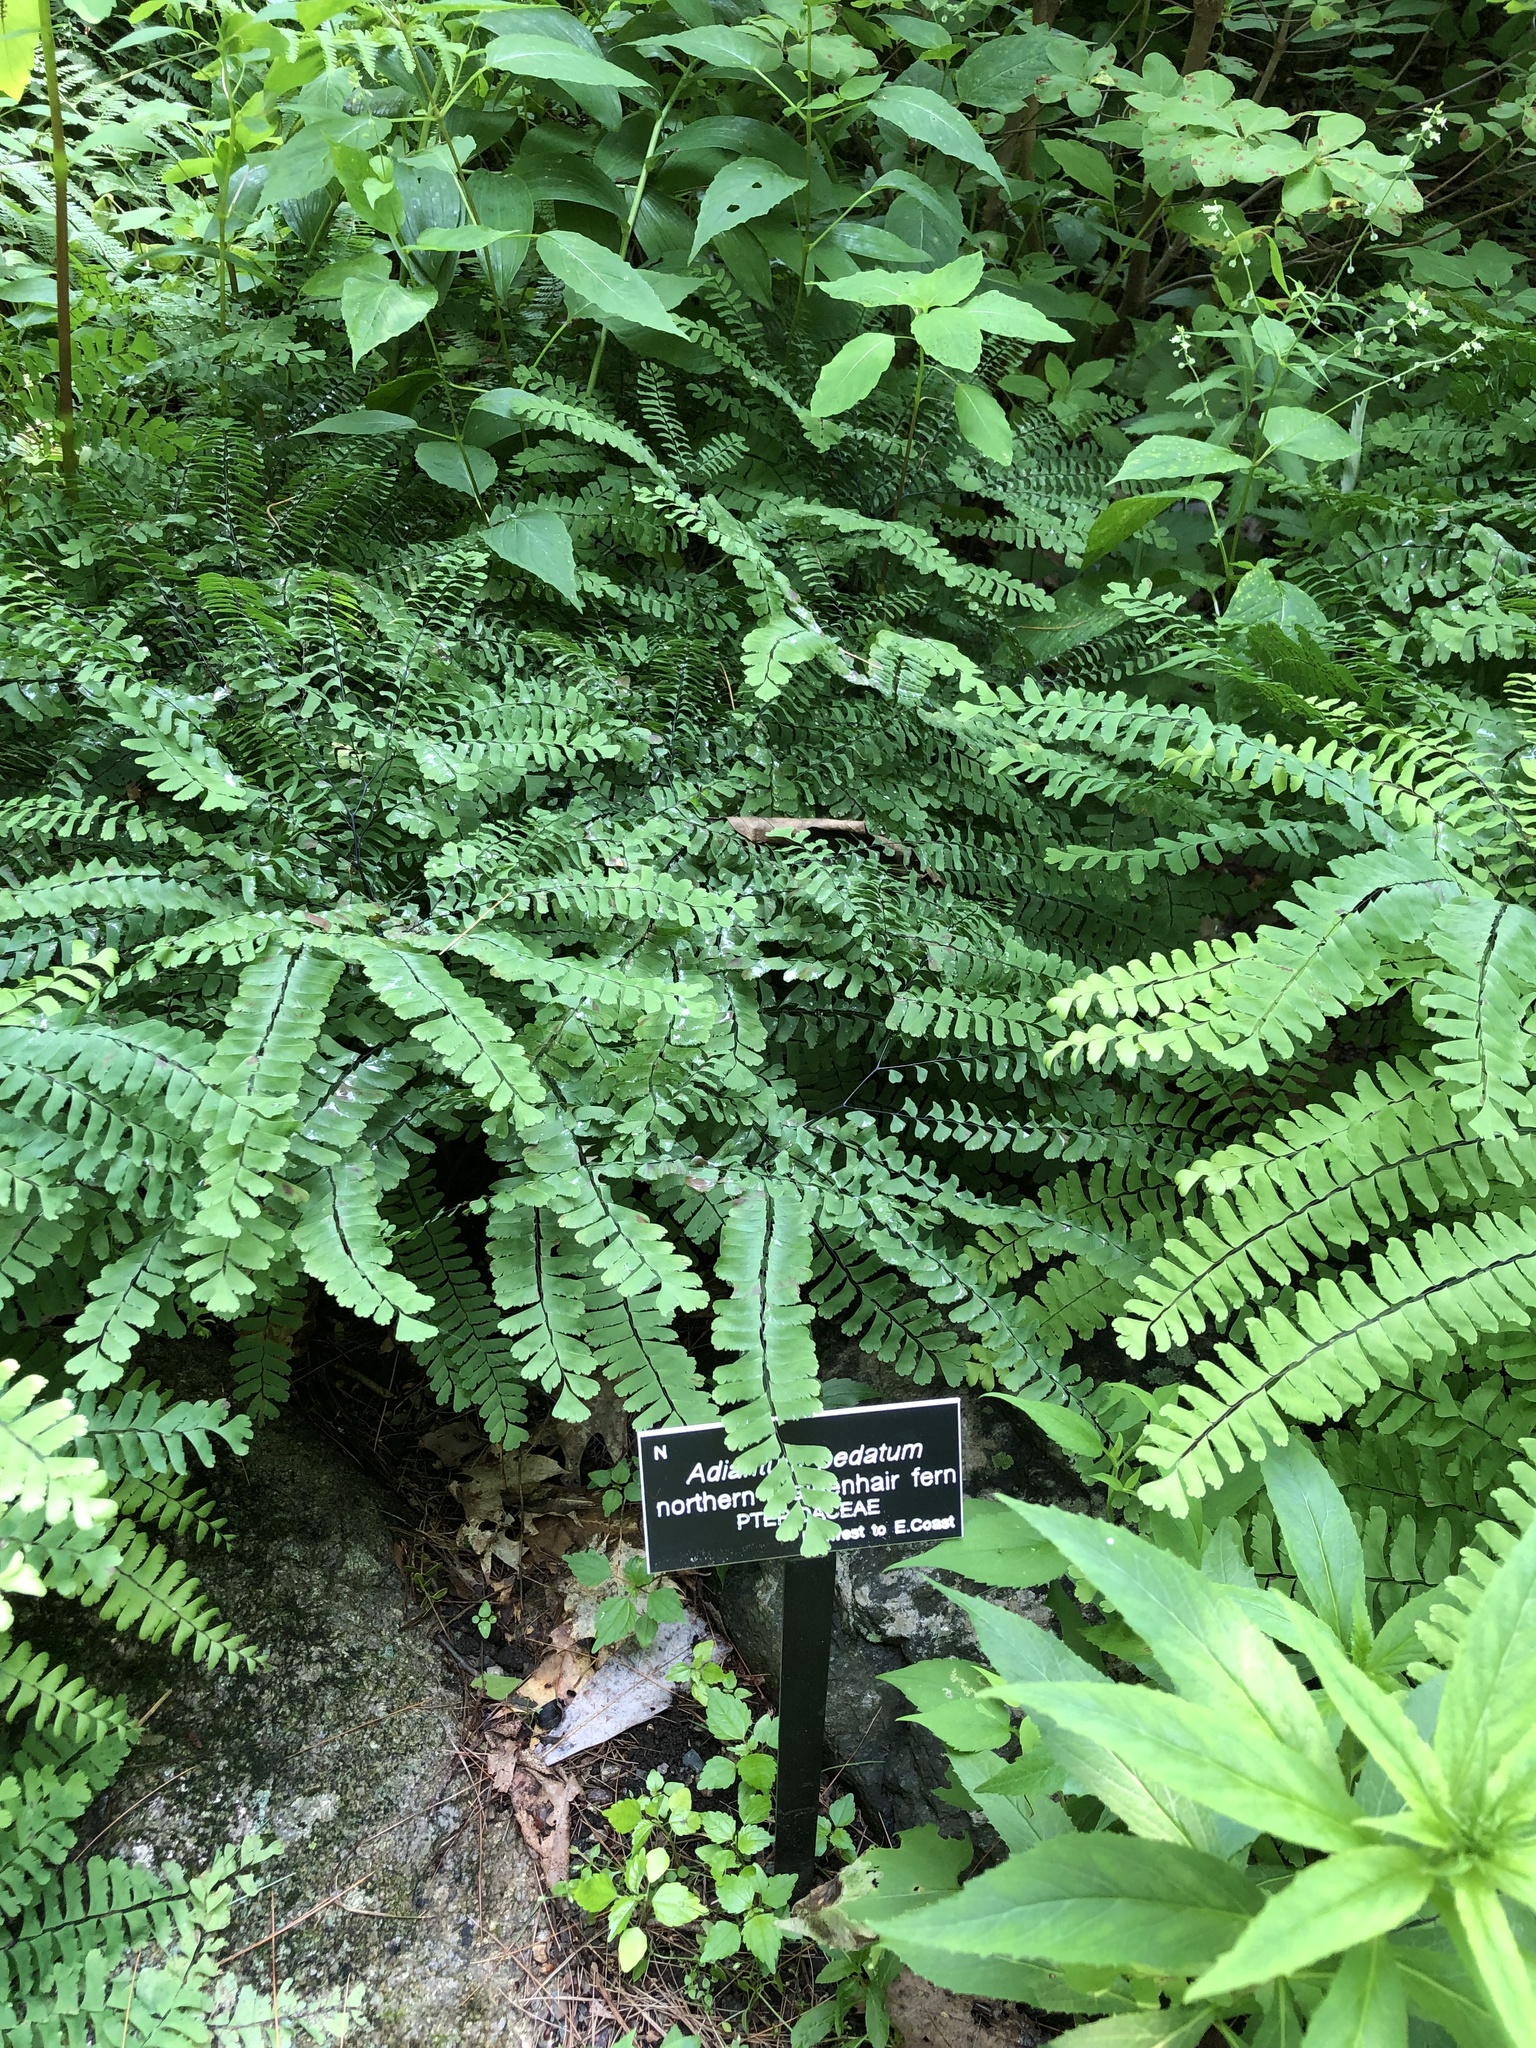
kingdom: Plantae
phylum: Tracheophyta
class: Polypodiopsida
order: Polypodiales
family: Pteridaceae
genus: Adiantum
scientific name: Adiantum pedatum
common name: Five-finger fern
